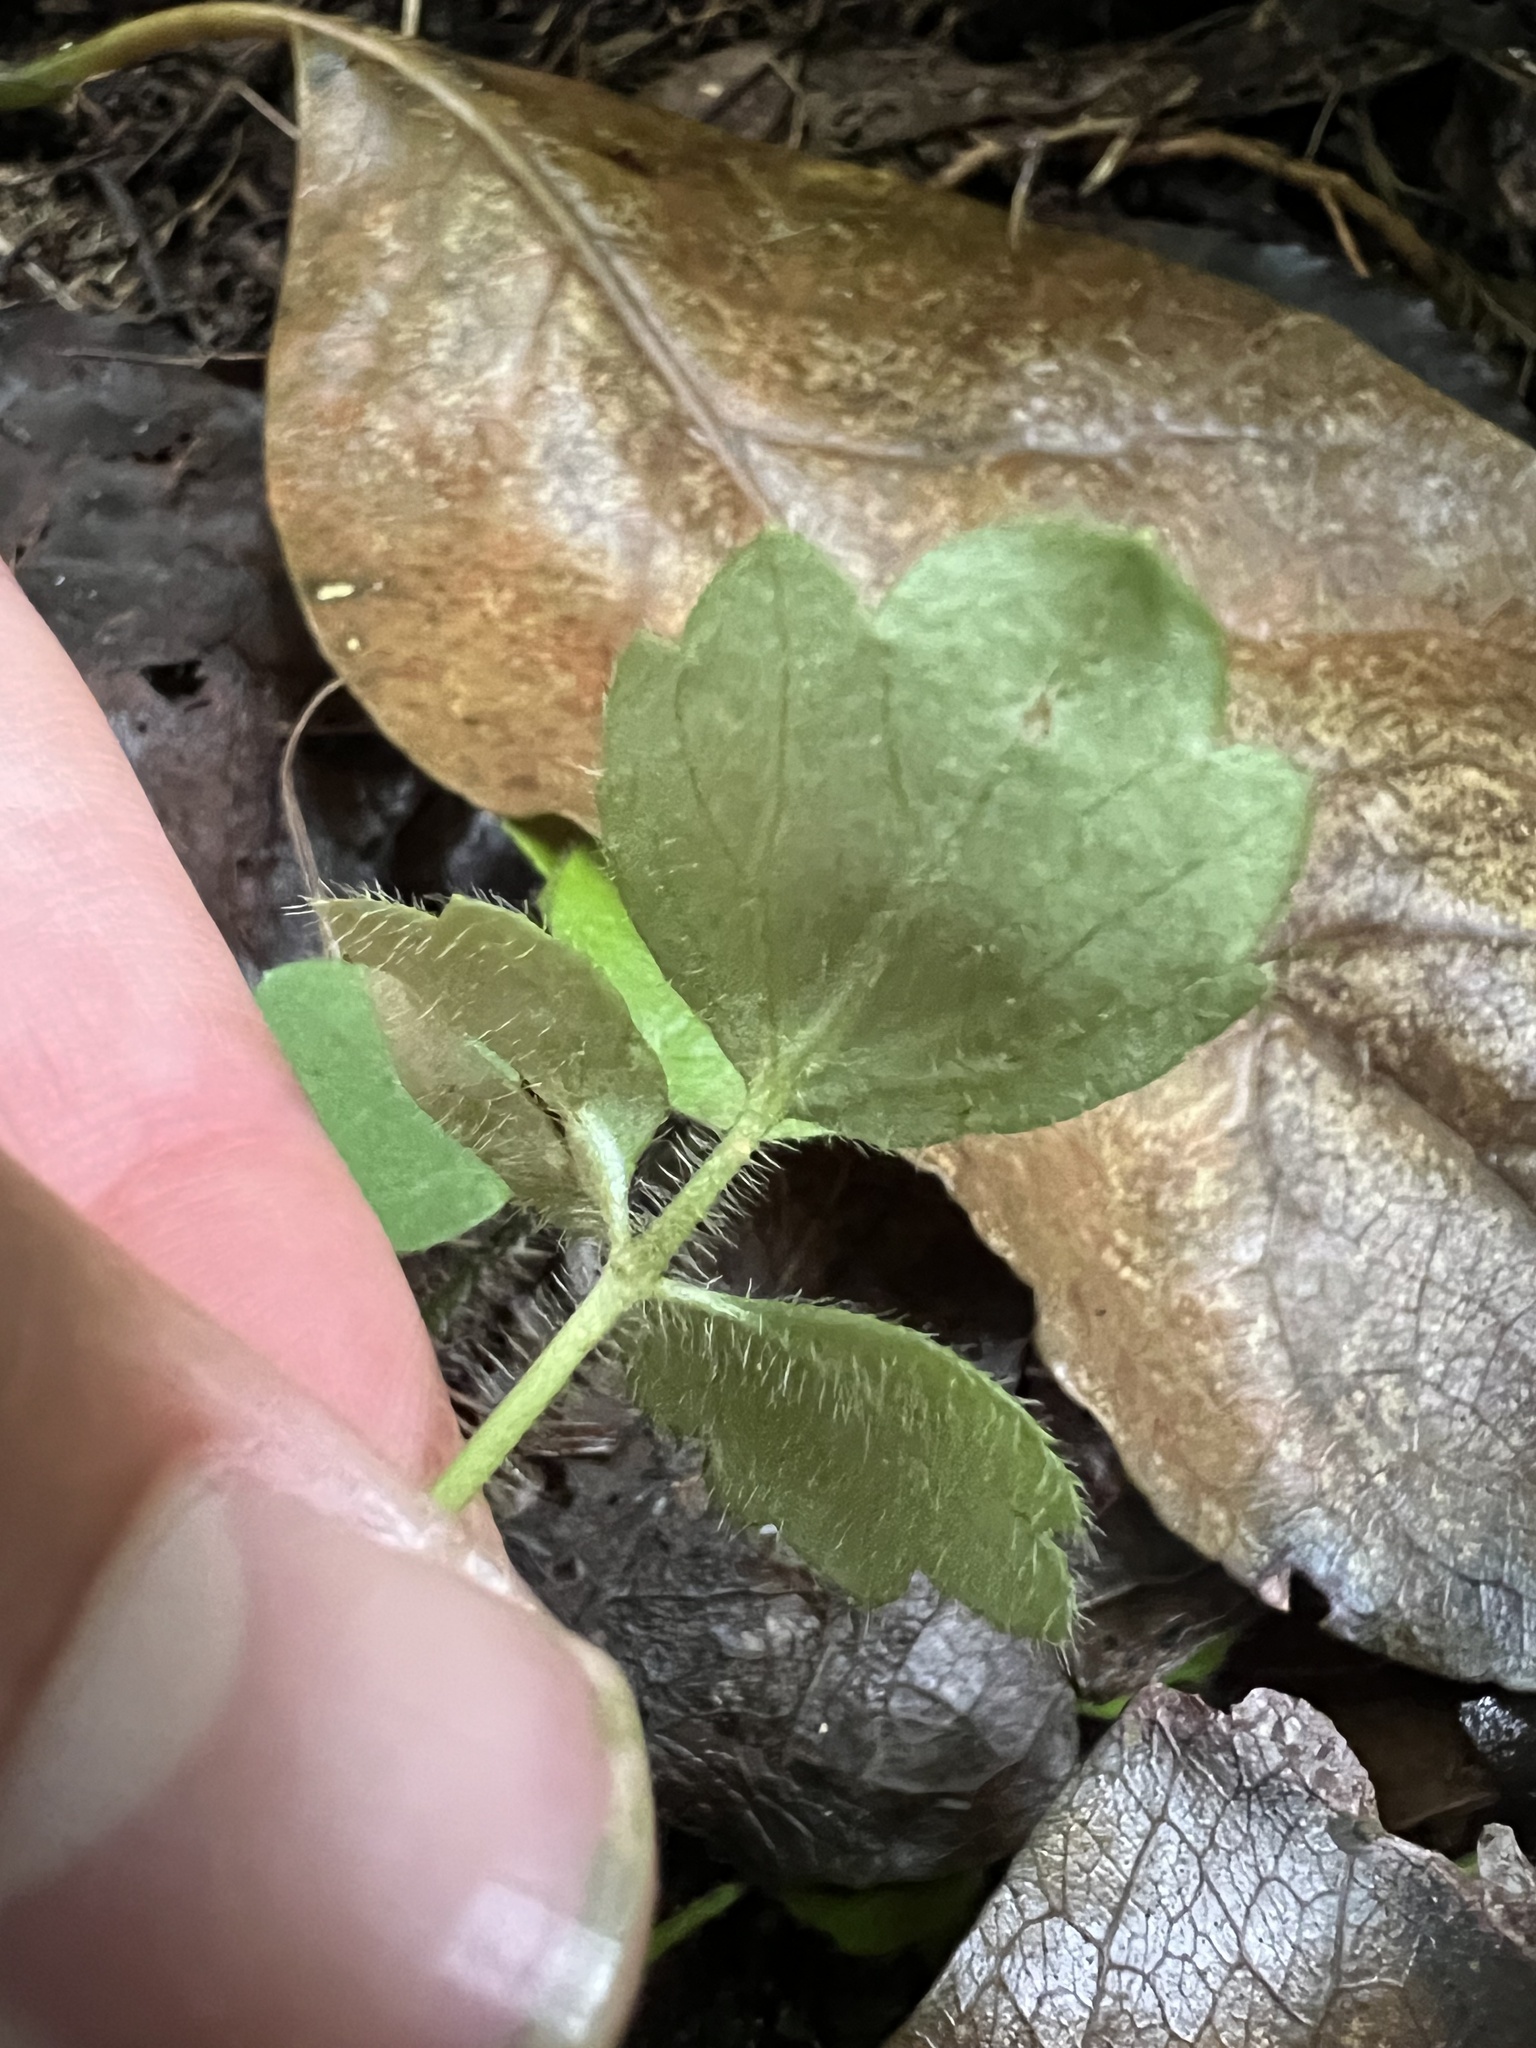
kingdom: Plantae
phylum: Tracheophyta
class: Magnoliopsida
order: Ranunculales
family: Ranunculaceae
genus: Ranunculus
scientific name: Ranunculus reflexus
